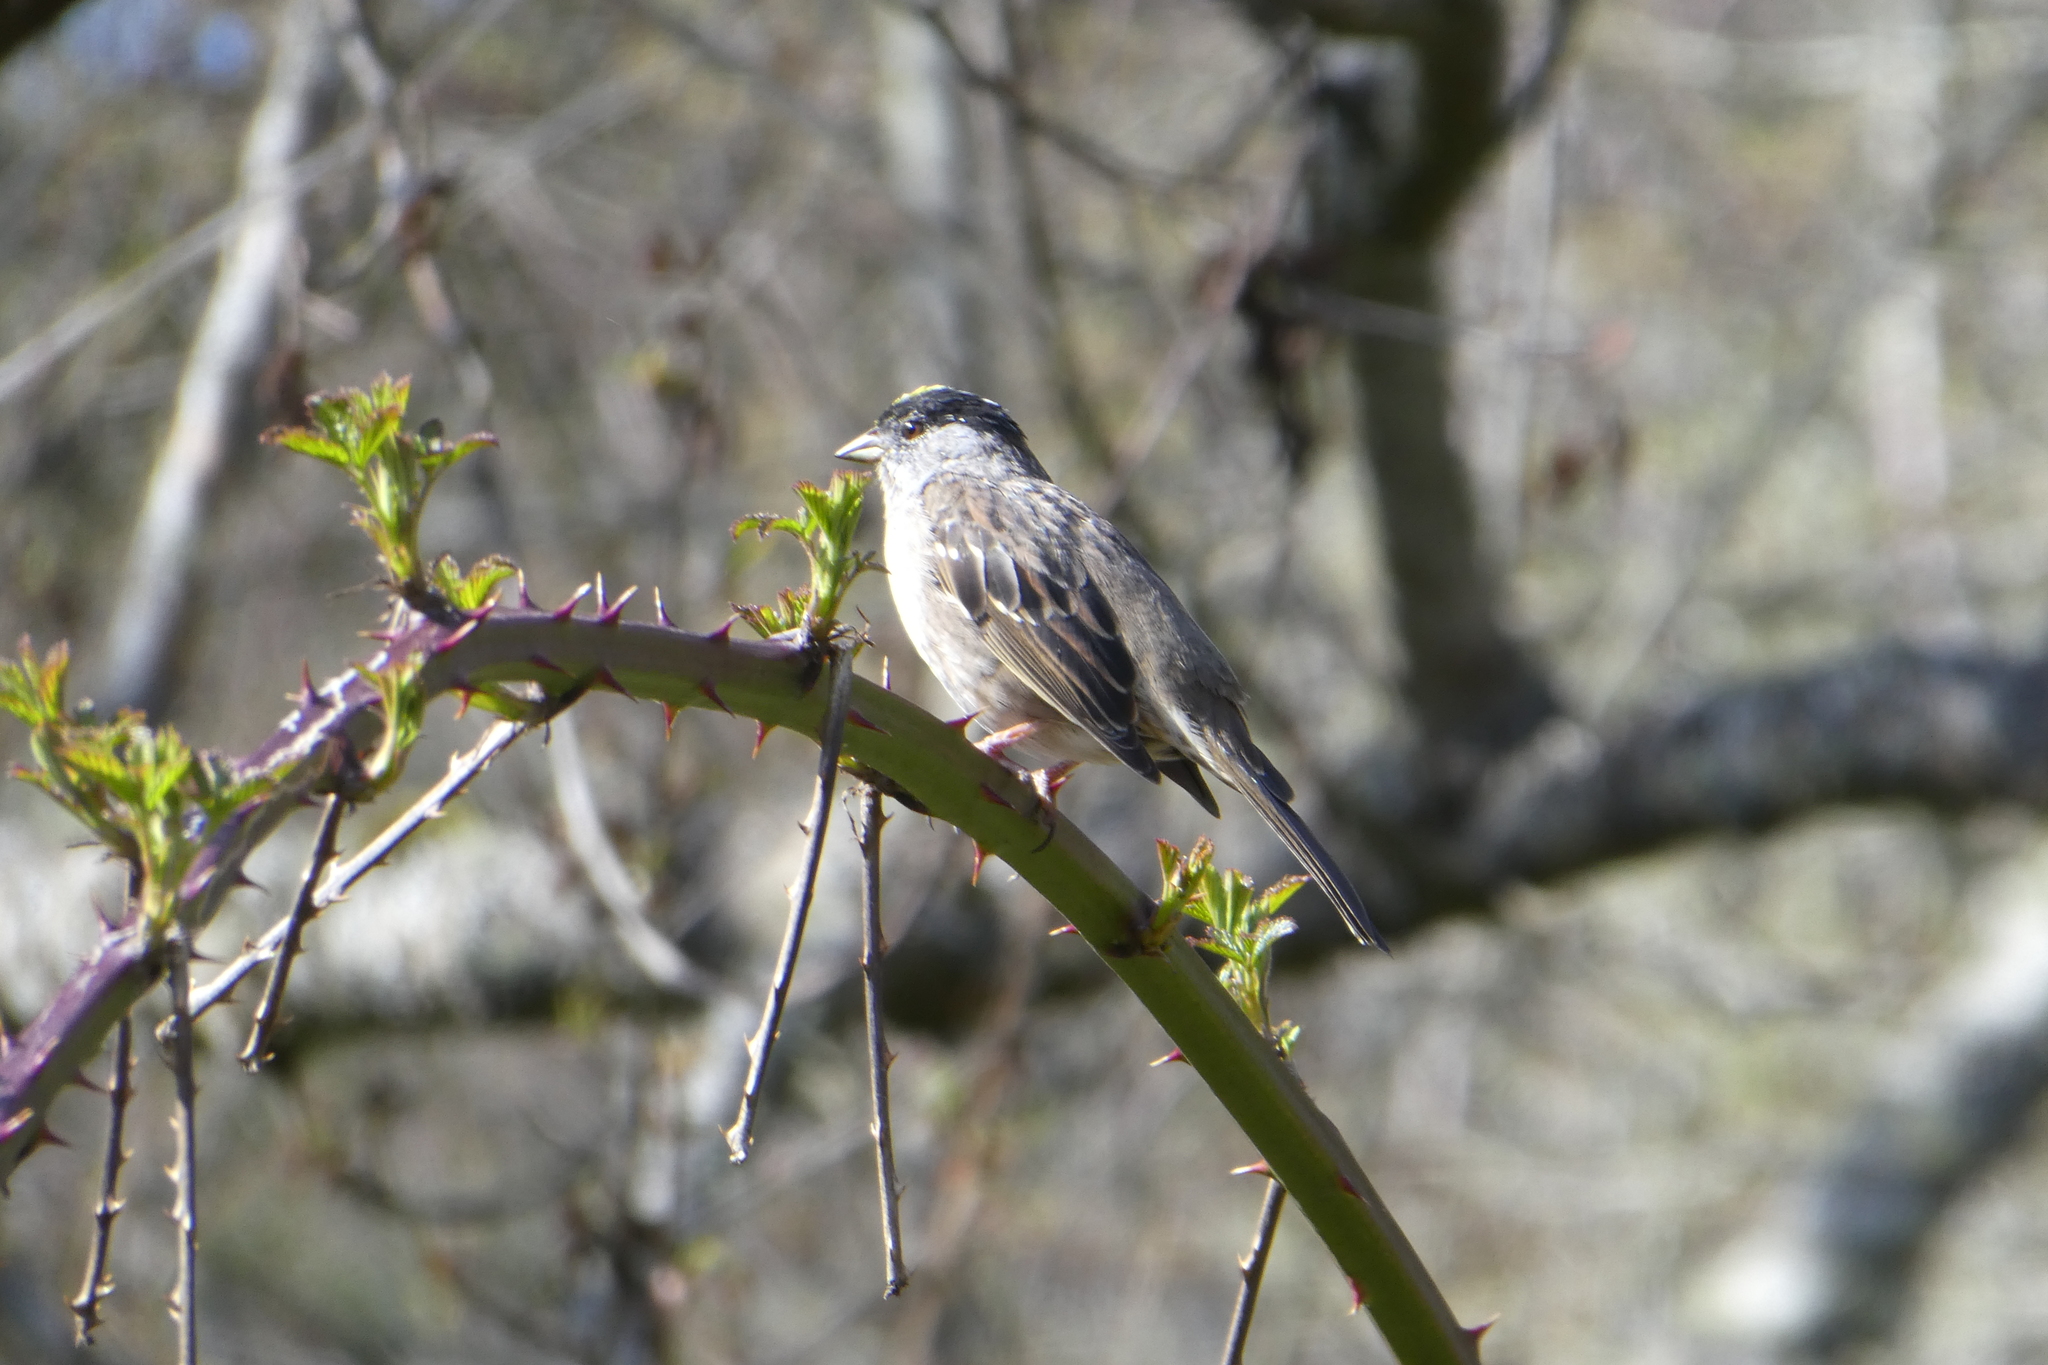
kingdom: Animalia
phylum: Chordata
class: Aves
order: Passeriformes
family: Passerellidae
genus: Zonotrichia
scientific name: Zonotrichia atricapilla
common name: Golden-crowned sparrow
